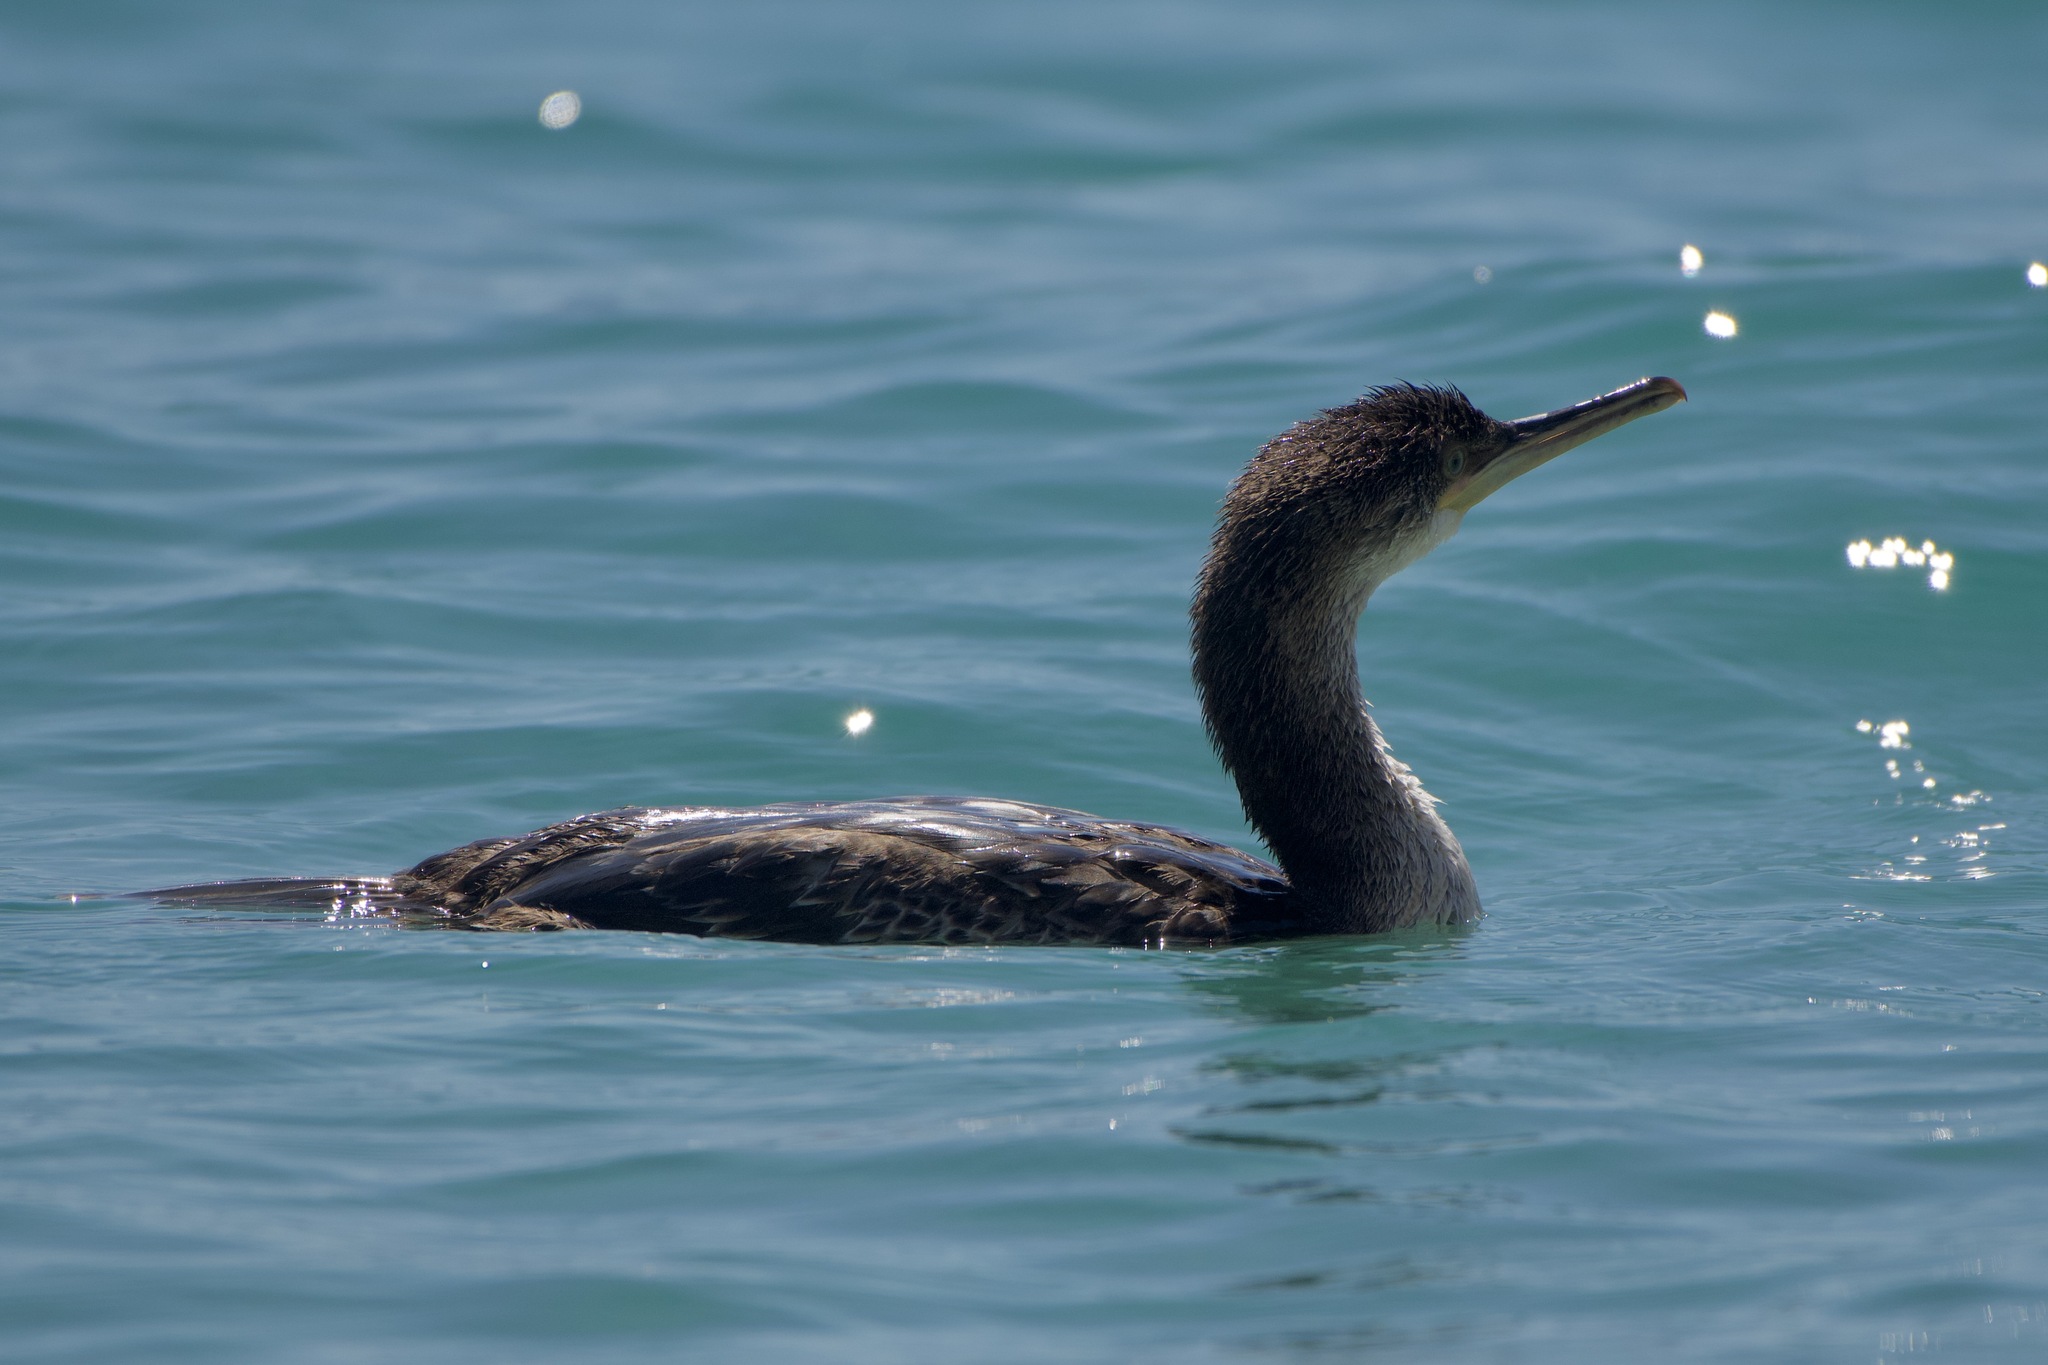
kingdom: Animalia
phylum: Chordata
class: Aves
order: Suliformes
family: Phalacrocoracidae
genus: Phalacrocorax
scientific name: Phalacrocorax aristotelis
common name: European shag
